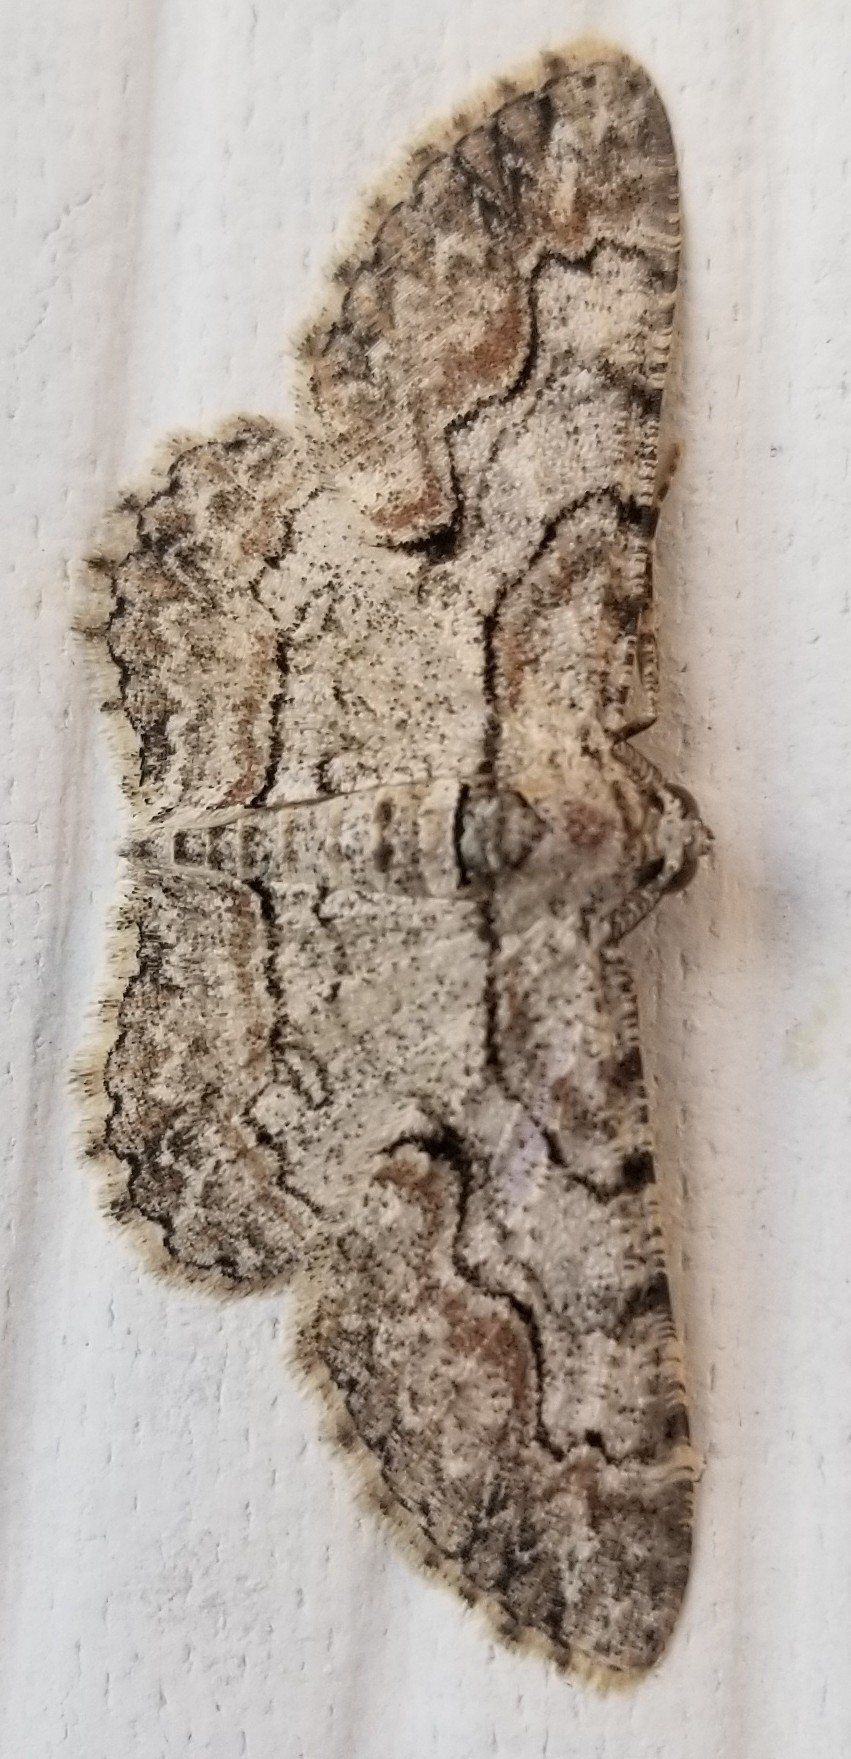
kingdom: Animalia
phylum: Arthropoda
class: Insecta
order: Lepidoptera
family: Geometridae
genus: Iridopsis
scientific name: Iridopsis defectaria
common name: Brown-shaded gray
